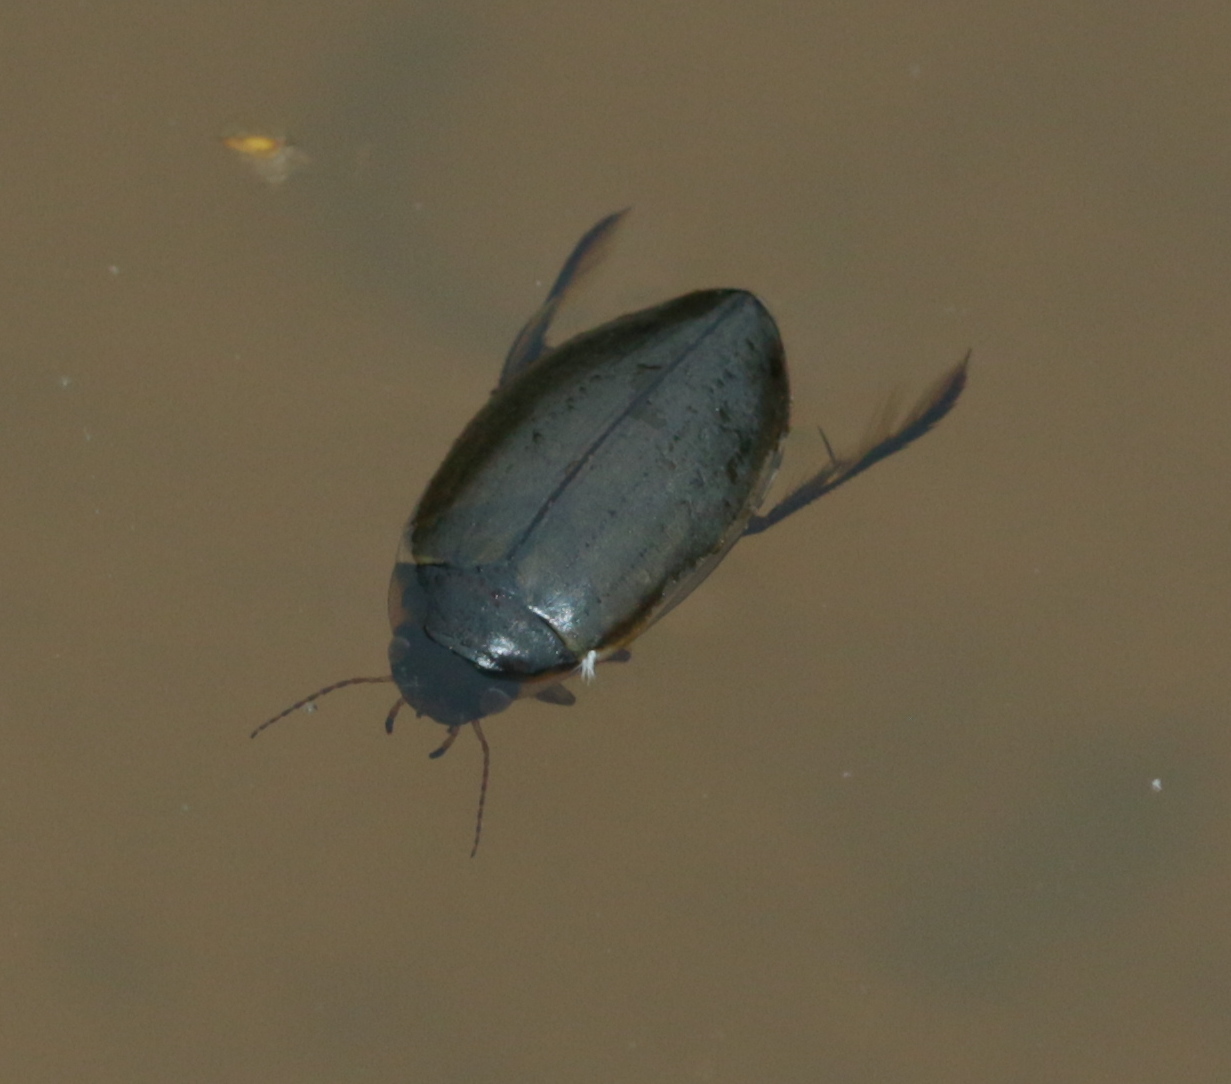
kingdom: Animalia
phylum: Arthropoda
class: Insecta
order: Coleoptera
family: Dytiscidae
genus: Colymbetes
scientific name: Colymbetes fuscus
